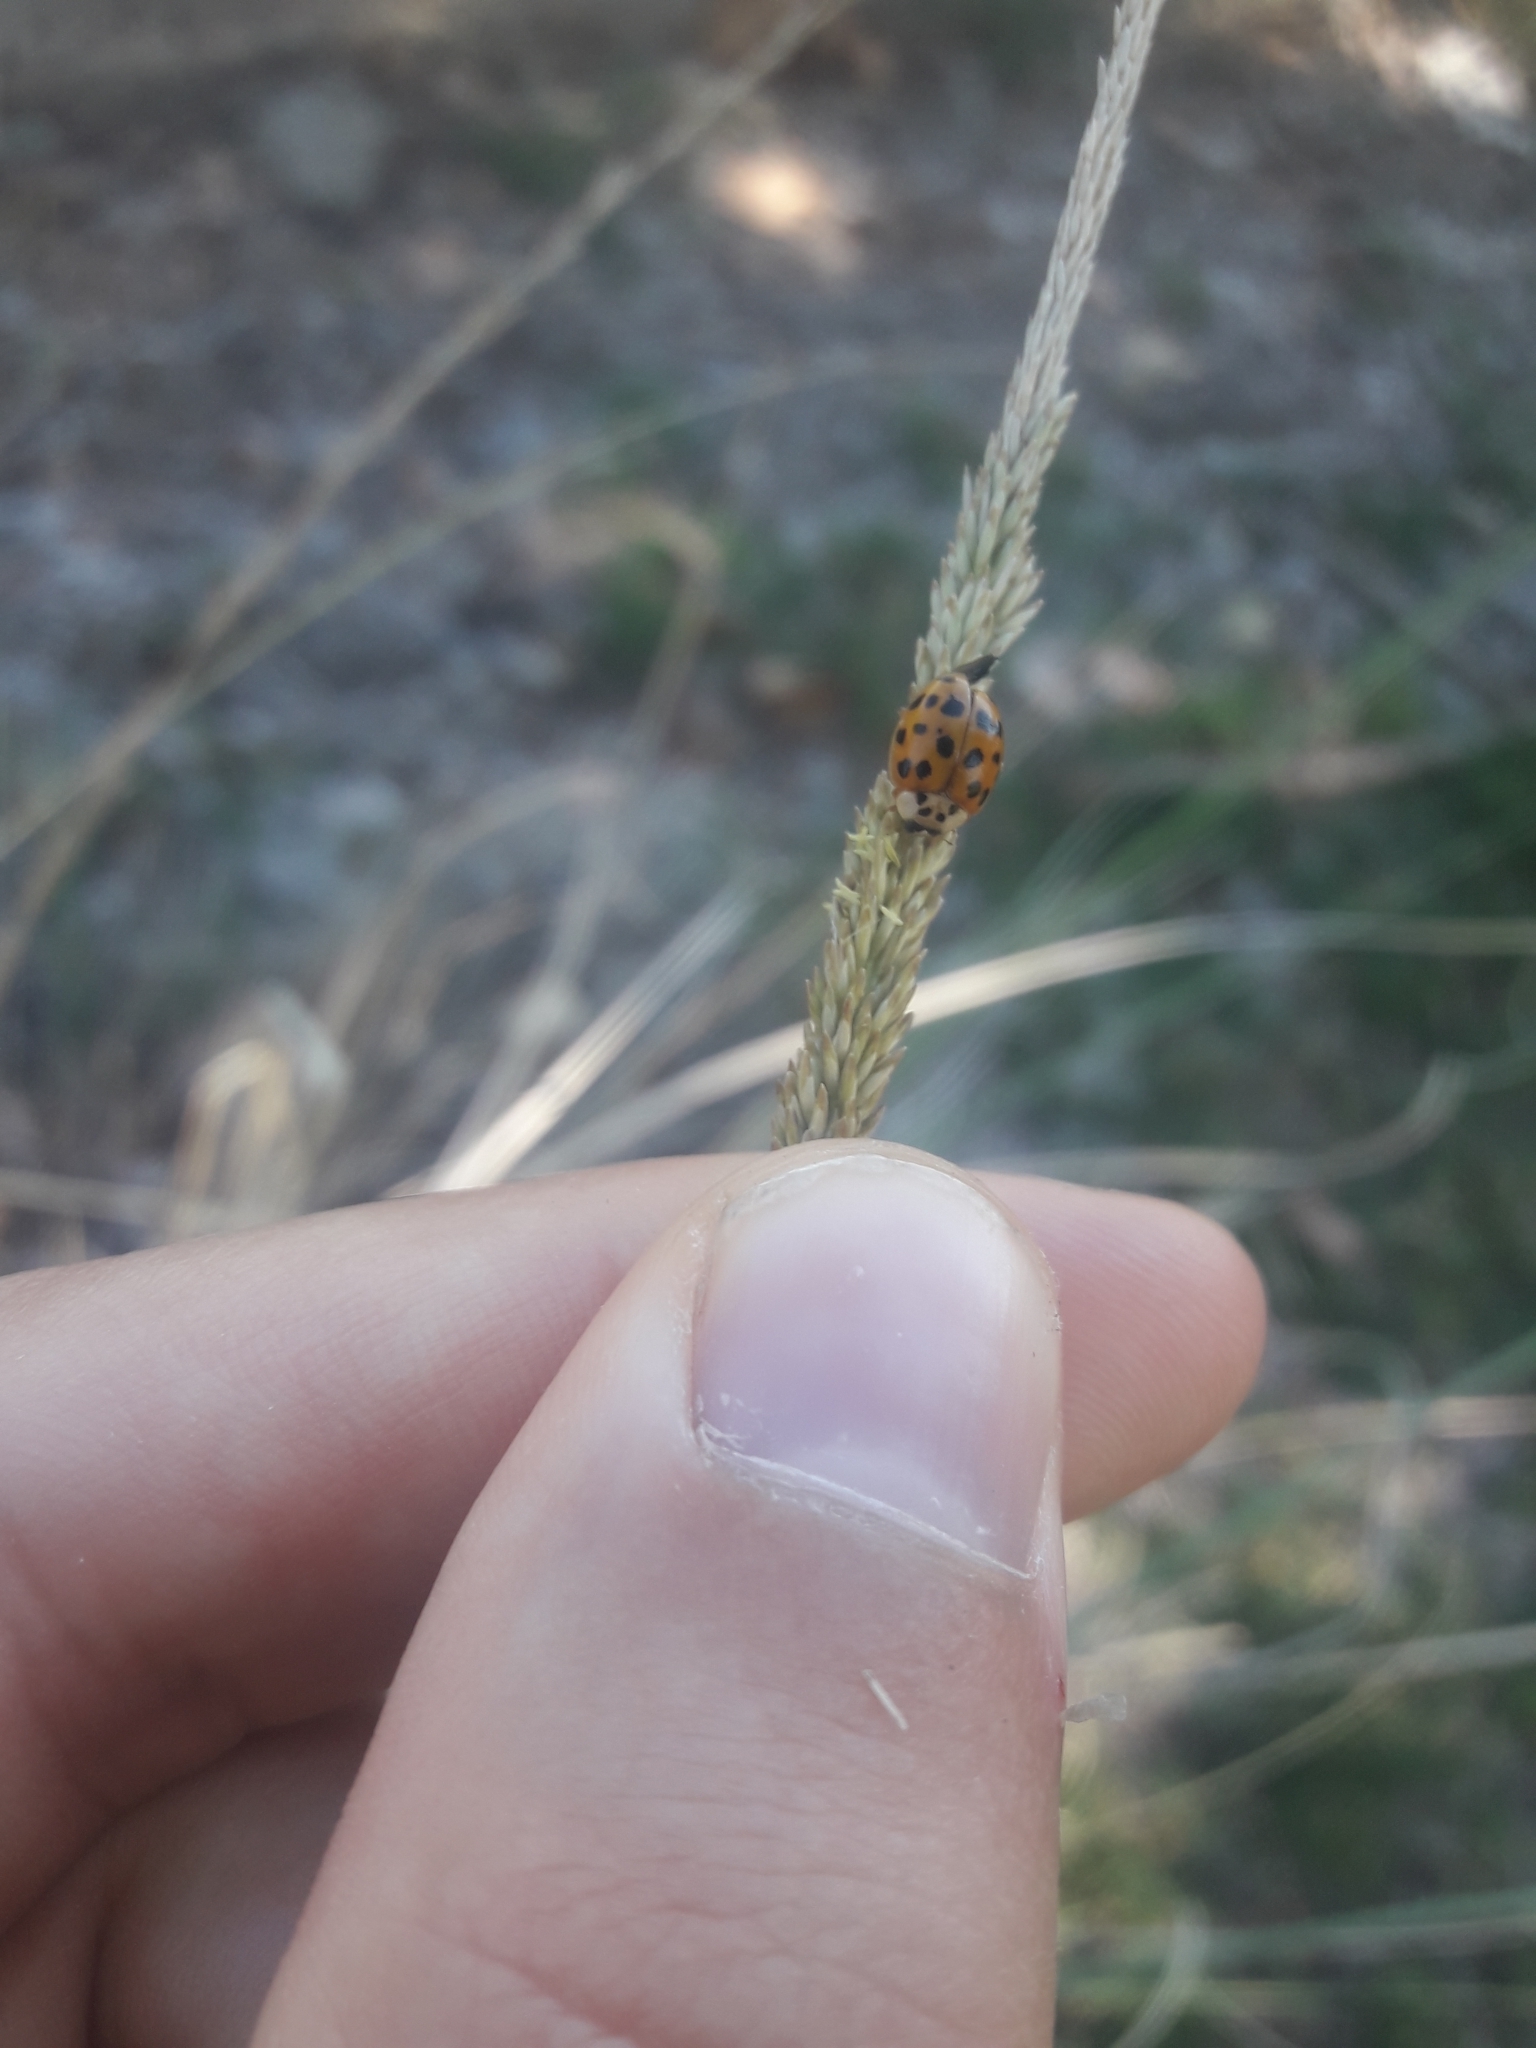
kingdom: Animalia
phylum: Arthropoda
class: Insecta
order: Coleoptera
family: Coccinellidae
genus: Harmonia
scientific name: Harmonia axyridis
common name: Harlequin ladybird
